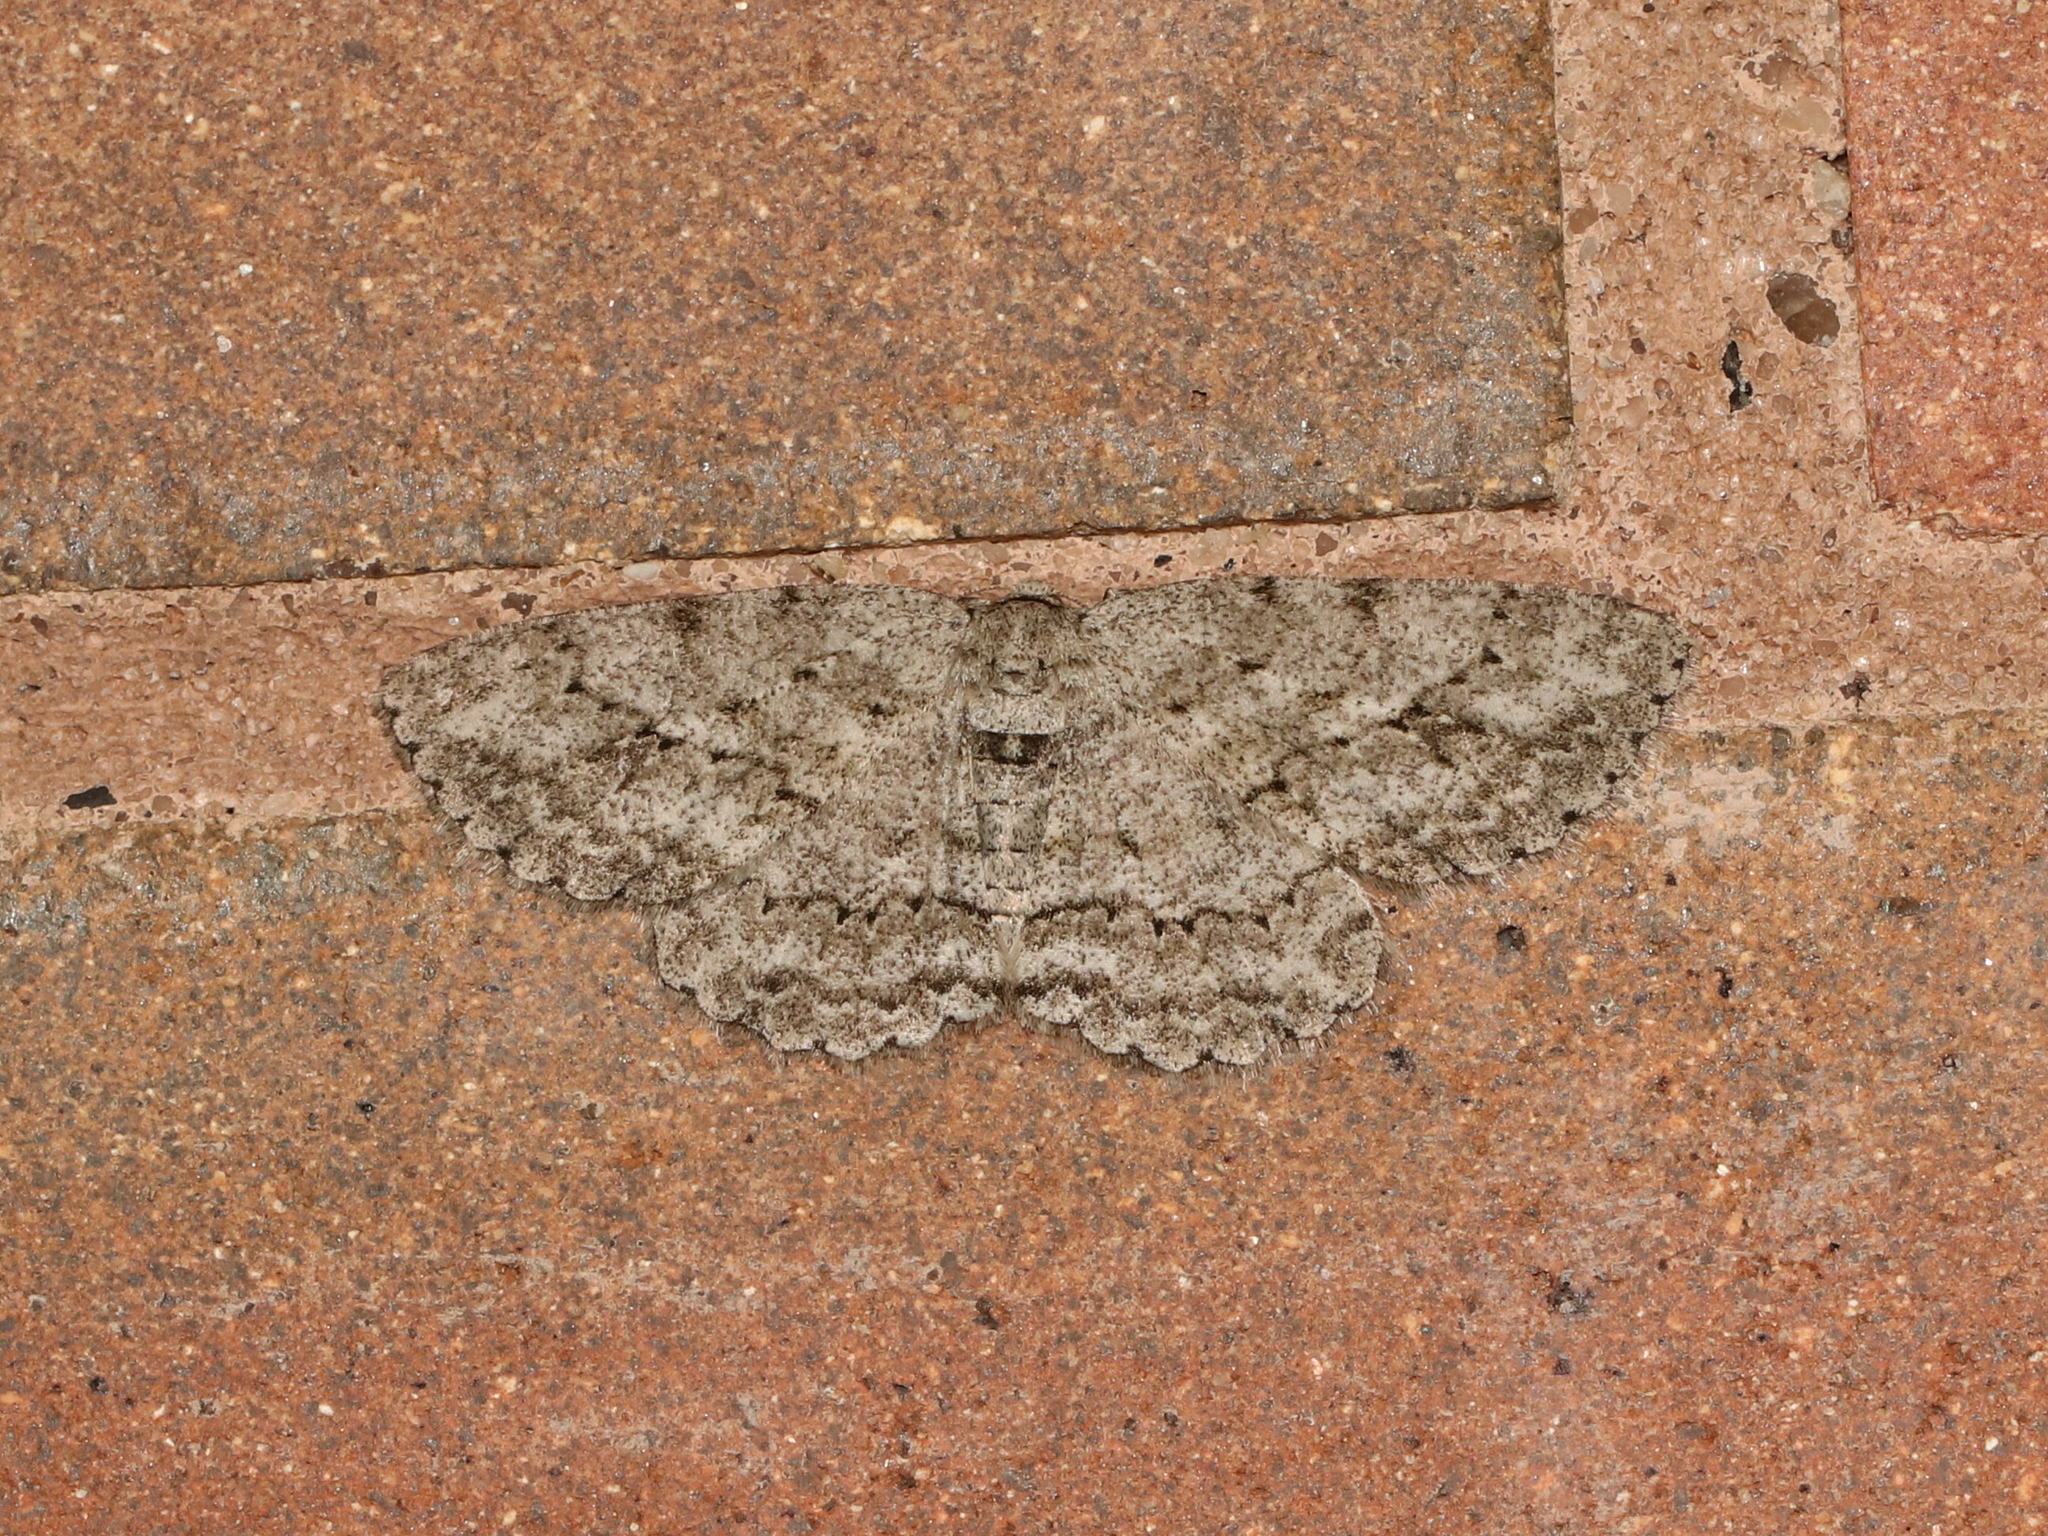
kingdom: Animalia
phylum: Arthropoda
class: Insecta
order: Lepidoptera
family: Geometridae
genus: Ectropis
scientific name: Ectropis crepuscularia
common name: Engrailed
